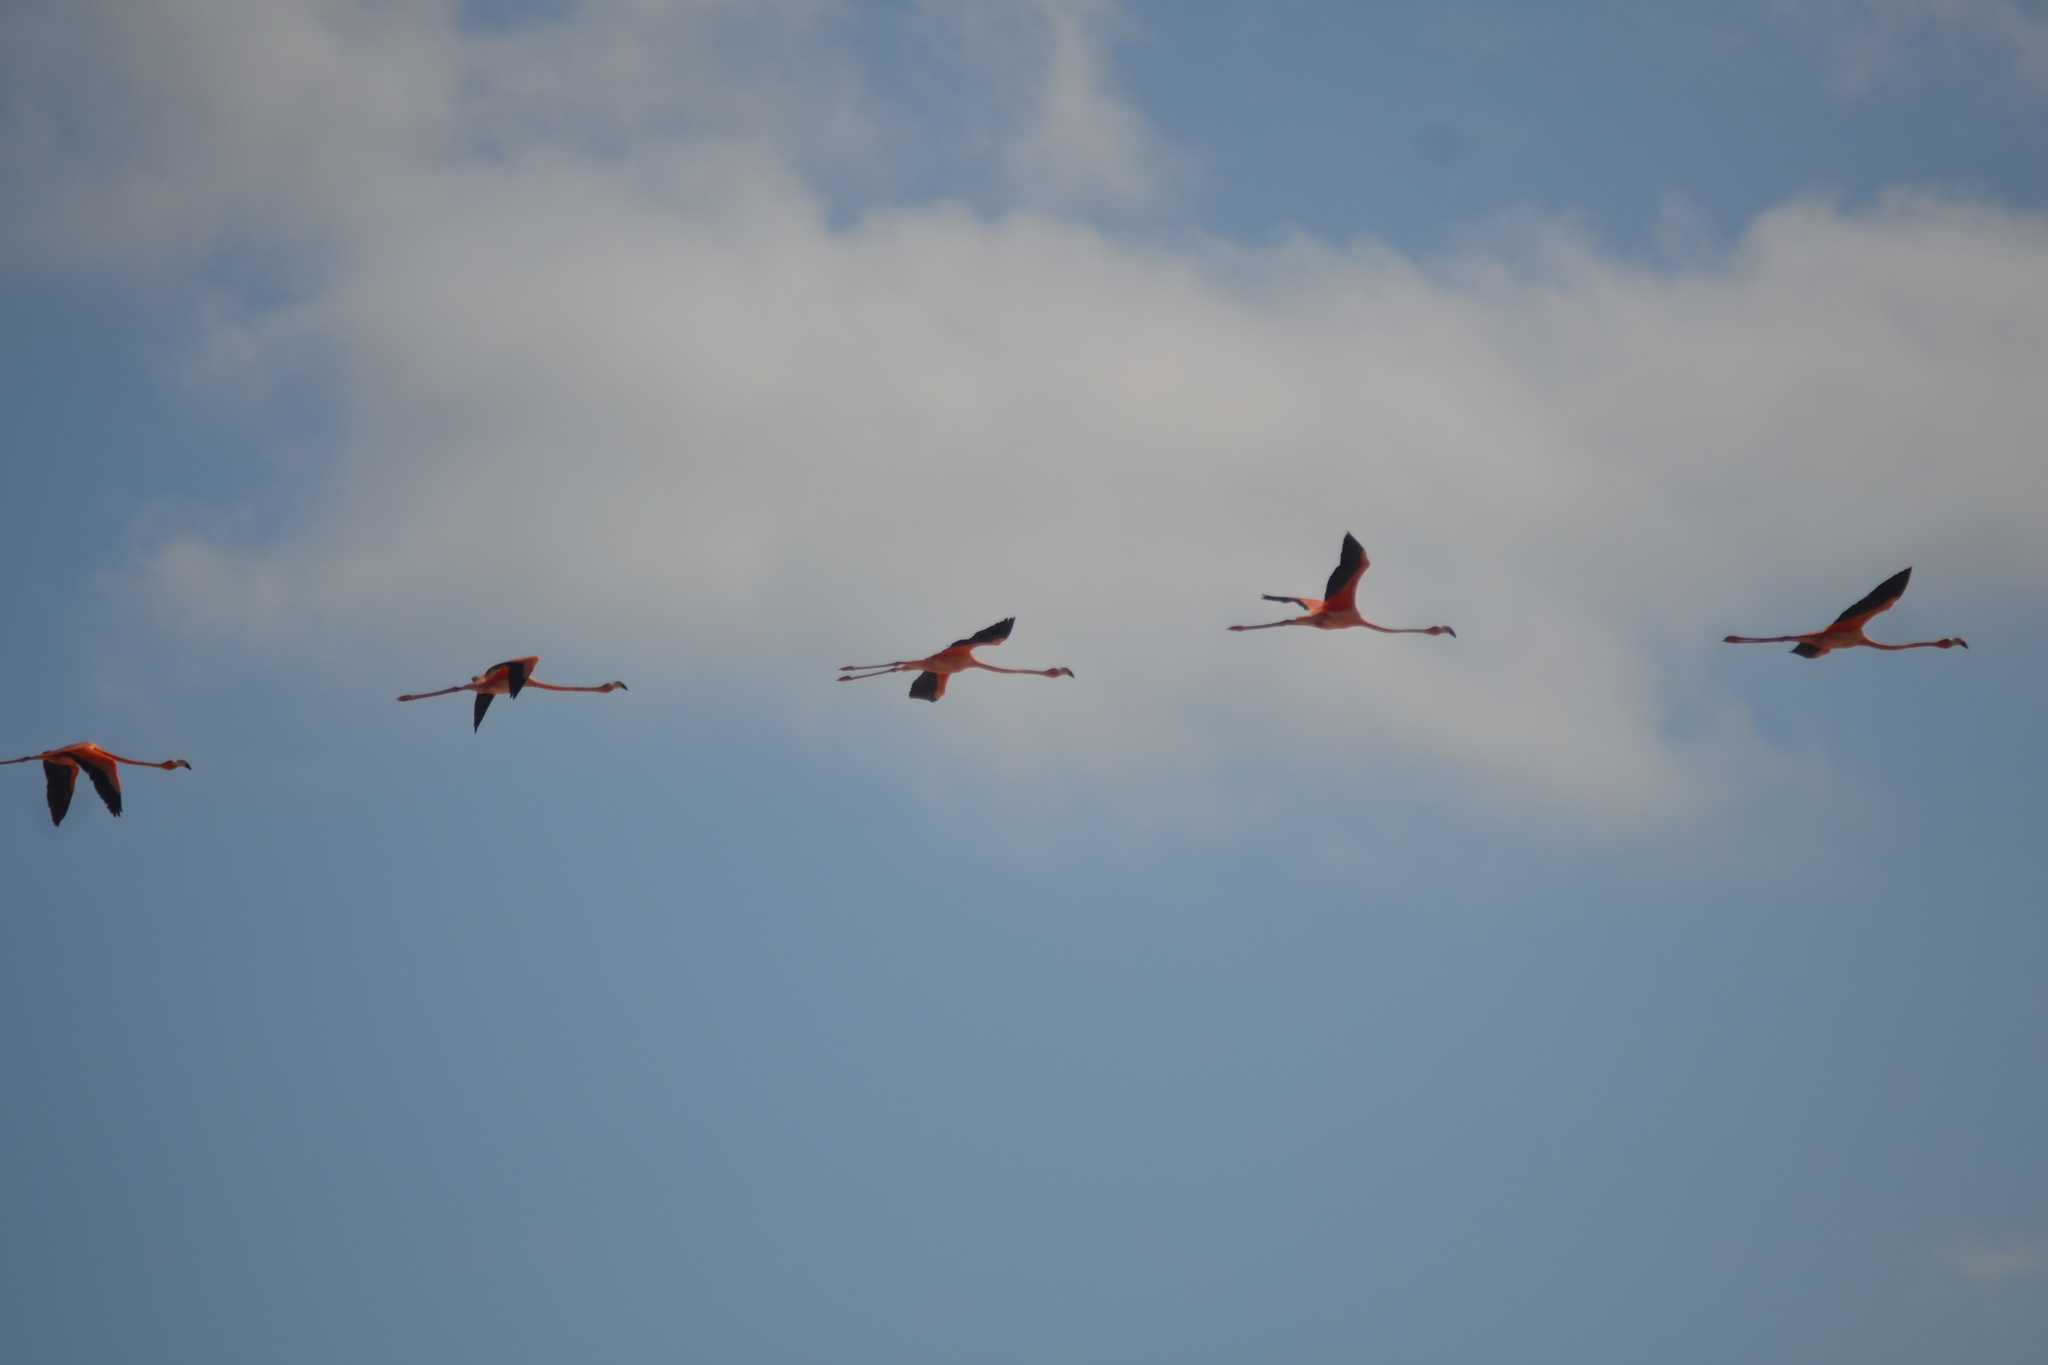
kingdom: Animalia
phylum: Chordata
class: Aves
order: Phoenicopteriformes
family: Phoenicopteridae
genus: Phoenicopterus
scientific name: Phoenicopterus ruber
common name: American flamingo
